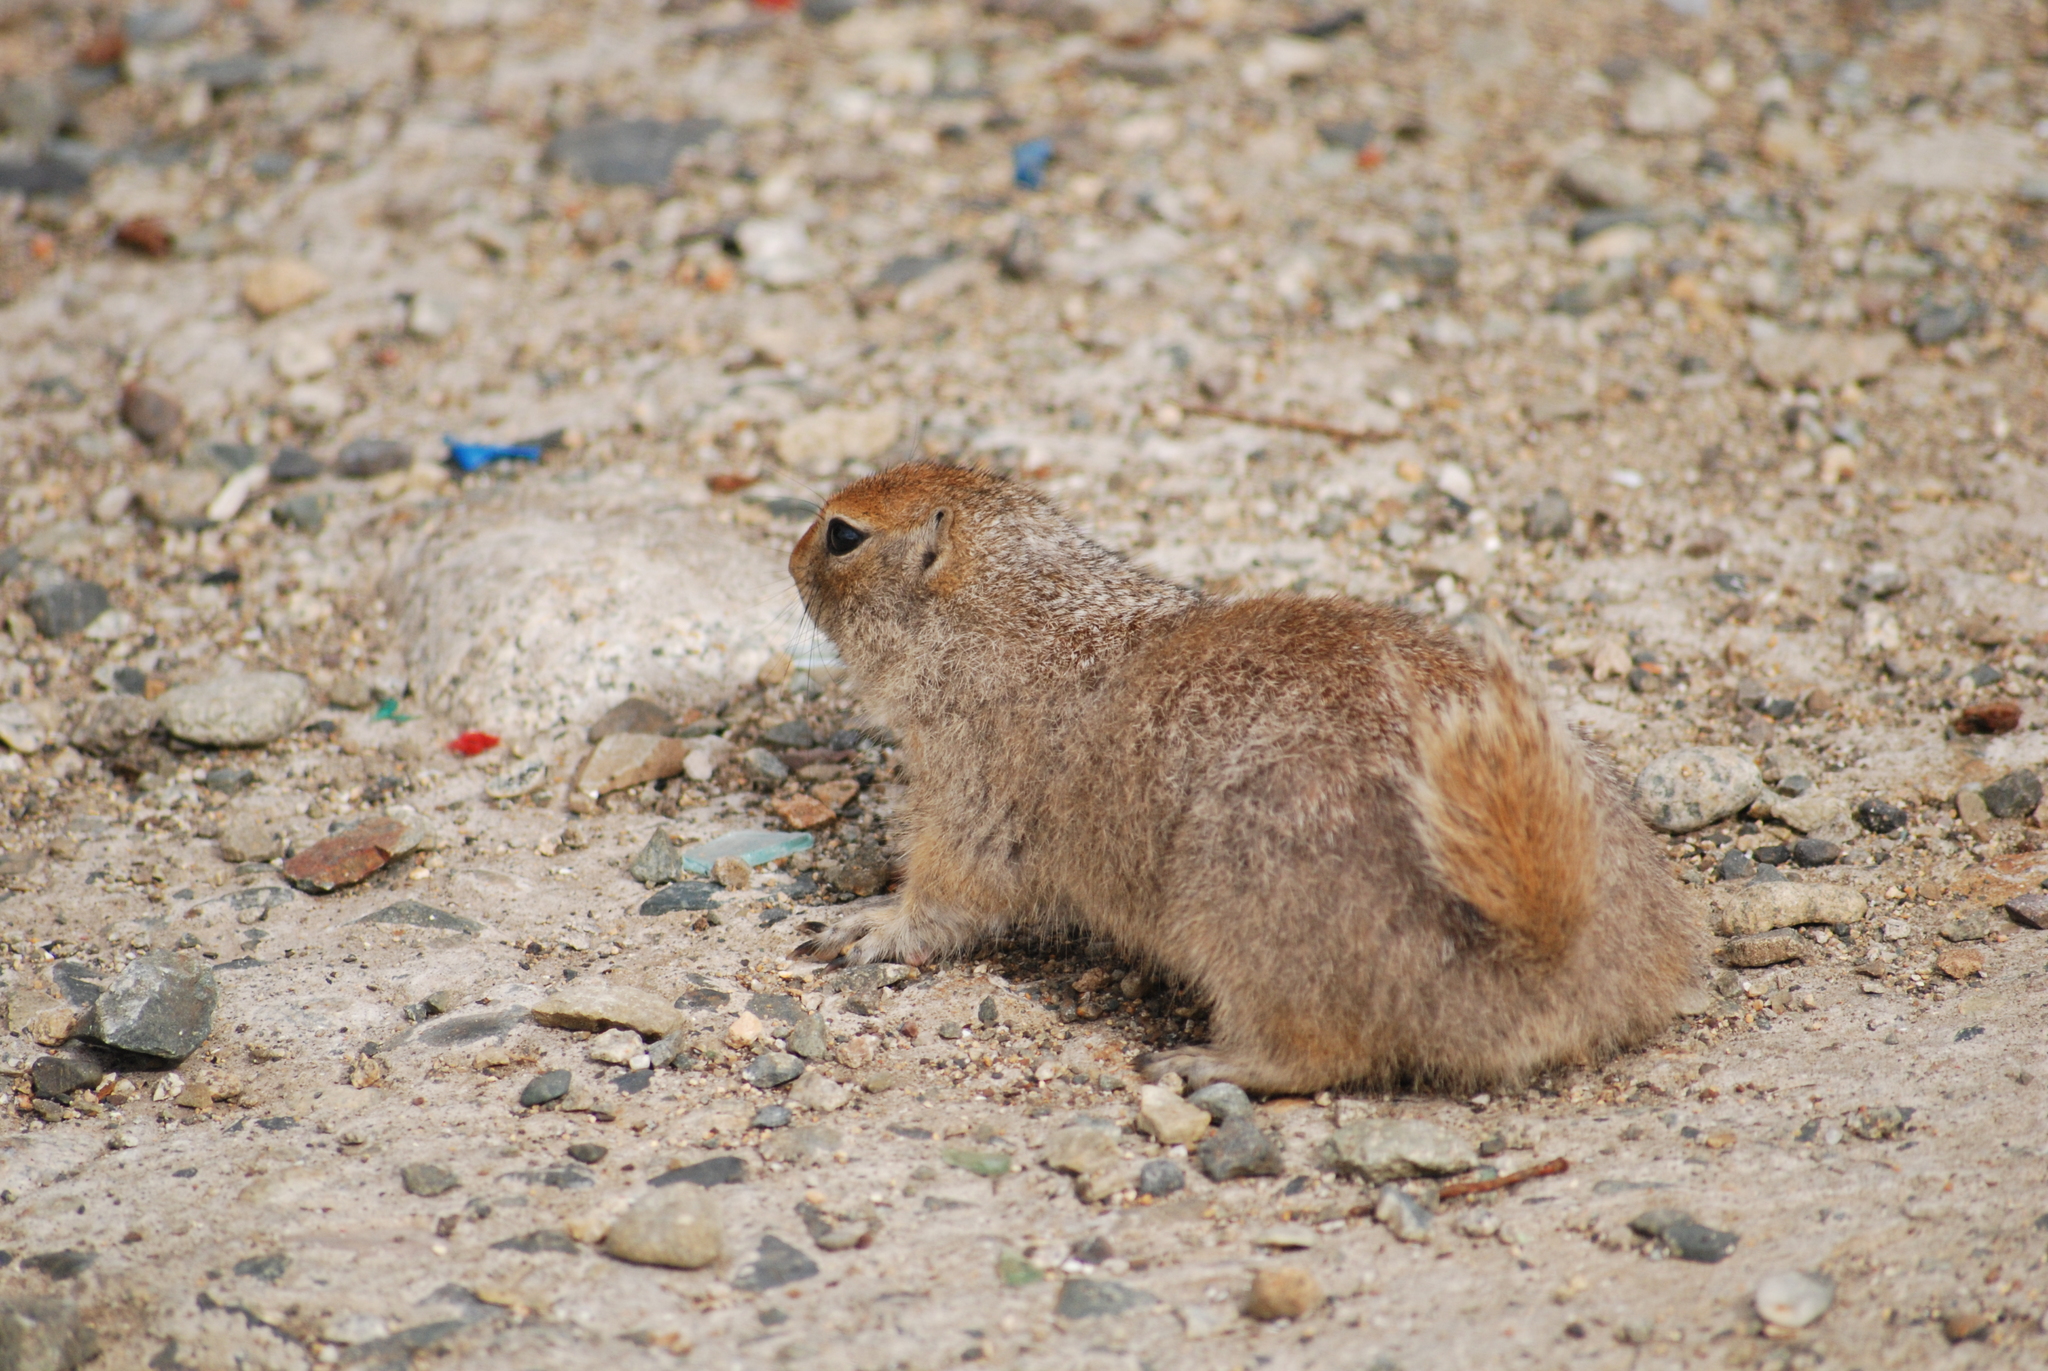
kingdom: Animalia
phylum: Chordata
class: Mammalia
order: Rodentia
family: Sciuridae
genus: Urocitellus
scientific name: Urocitellus parryii
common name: Arctic ground squirrel
